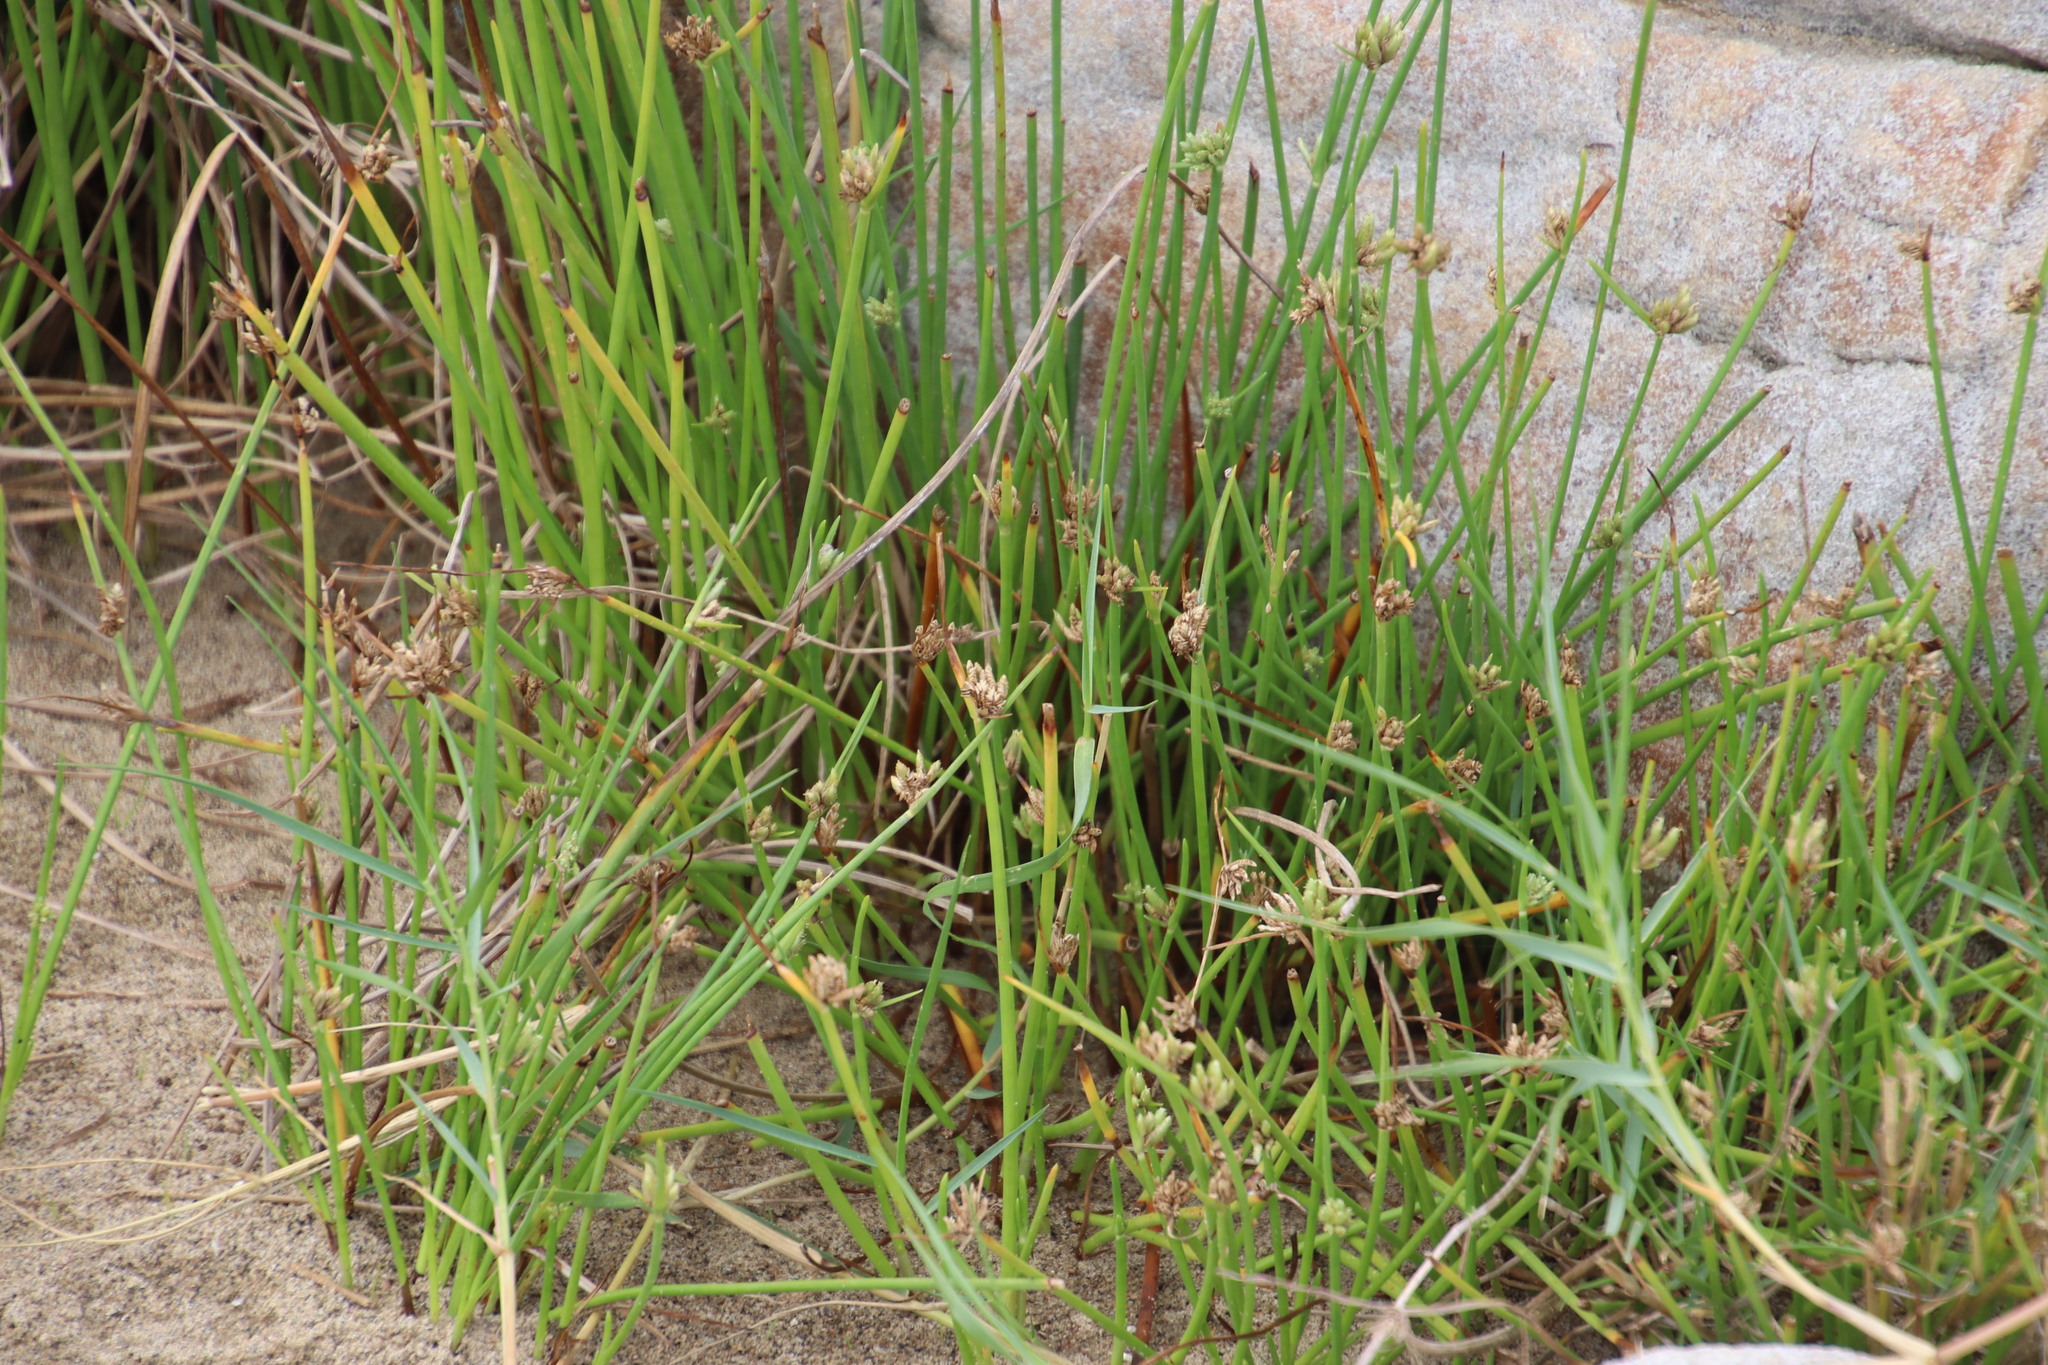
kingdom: Plantae
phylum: Tracheophyta
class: Liliopsida
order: Poales
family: Cyperaceae
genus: Cyperus
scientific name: Cyperus laevigatus
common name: Smooth flat sedge
